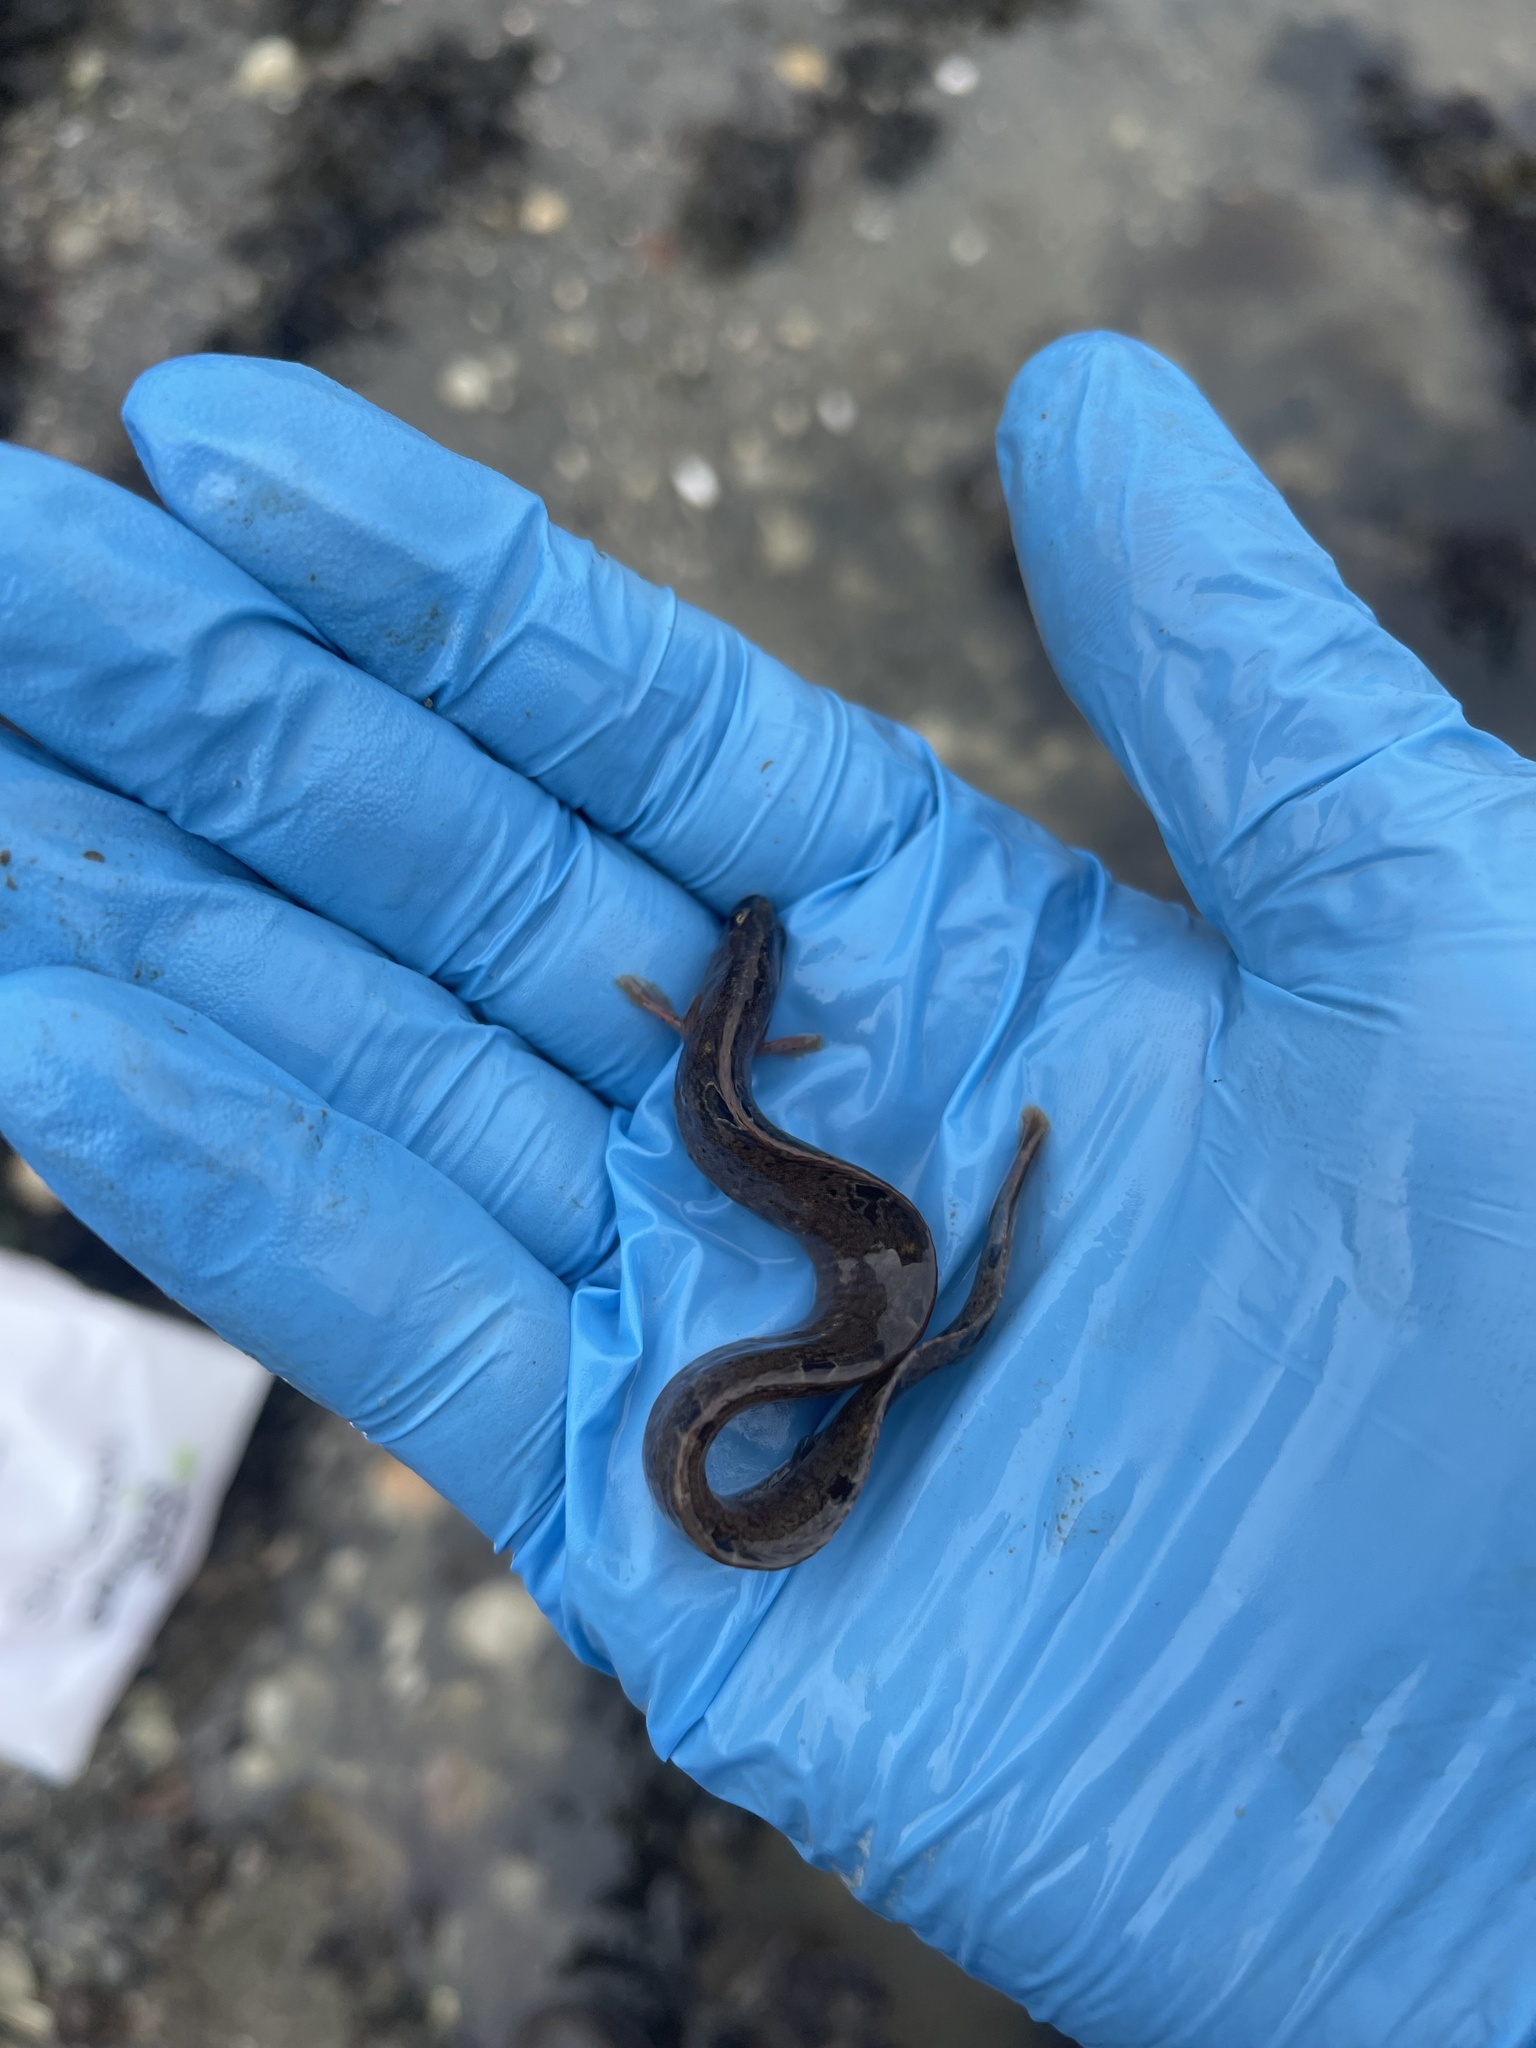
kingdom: Animalia
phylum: Chordata
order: Perciformes
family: Pholidae
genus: Pholis
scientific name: Pholis gunnellus
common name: Butterfish
